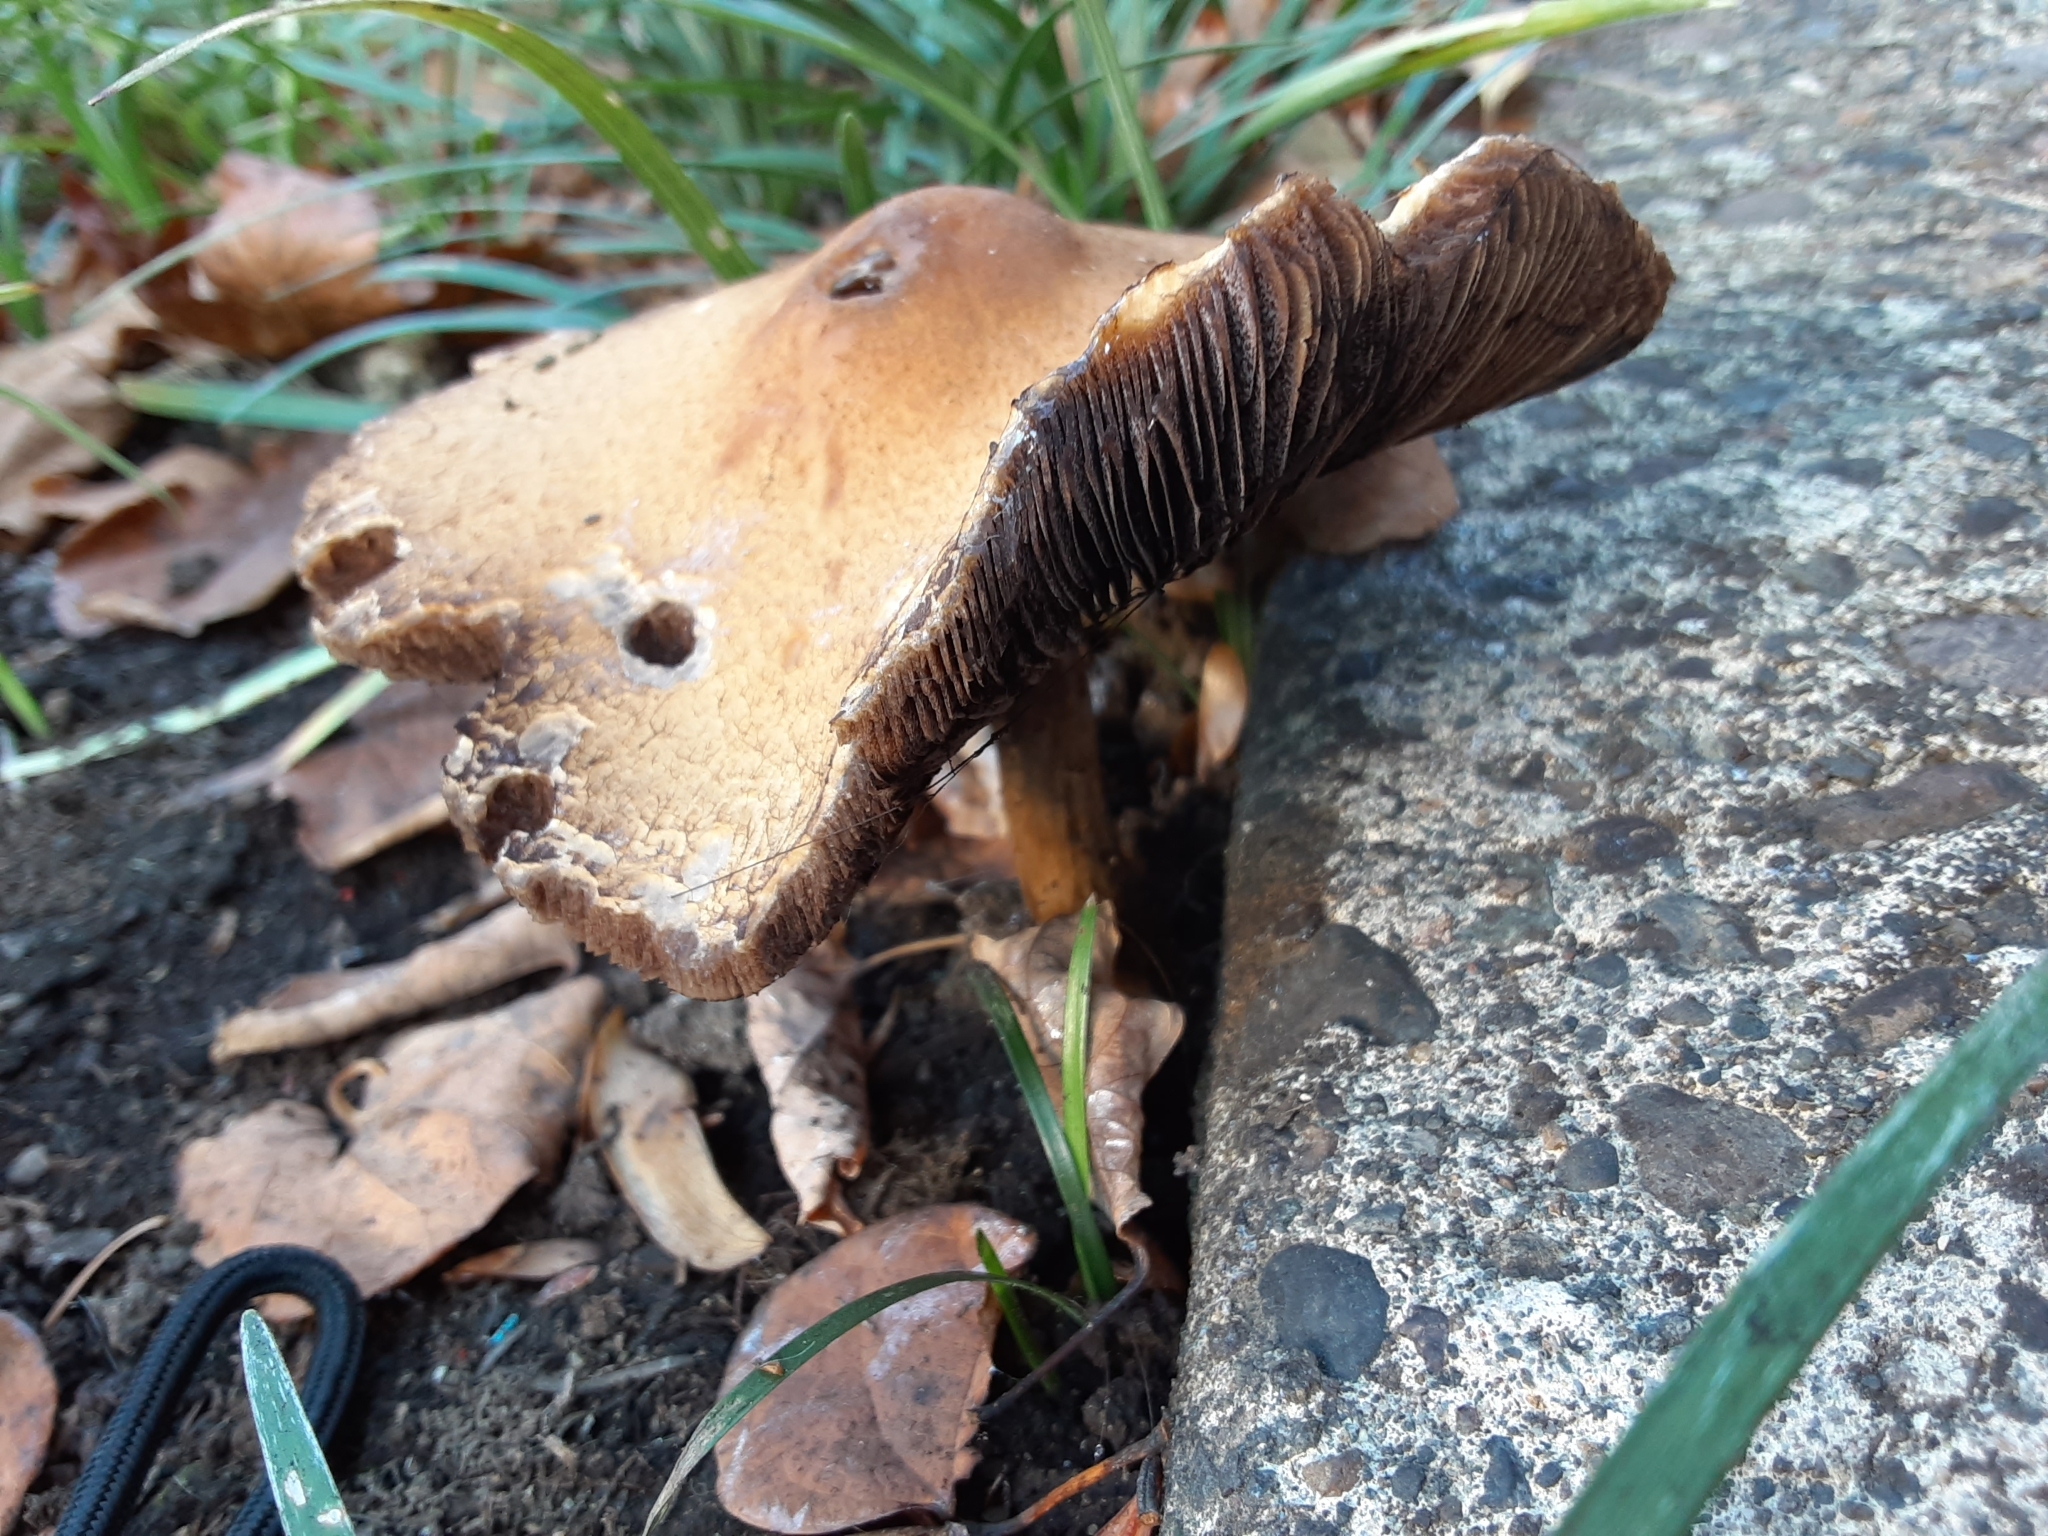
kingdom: Fungi
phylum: Basidiomycota
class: Agaricomycetes
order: Agaricales
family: Psathyrellaceae
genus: Lacrymaria
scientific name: Lacrymaria lacrymabunda
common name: Weeping widow
